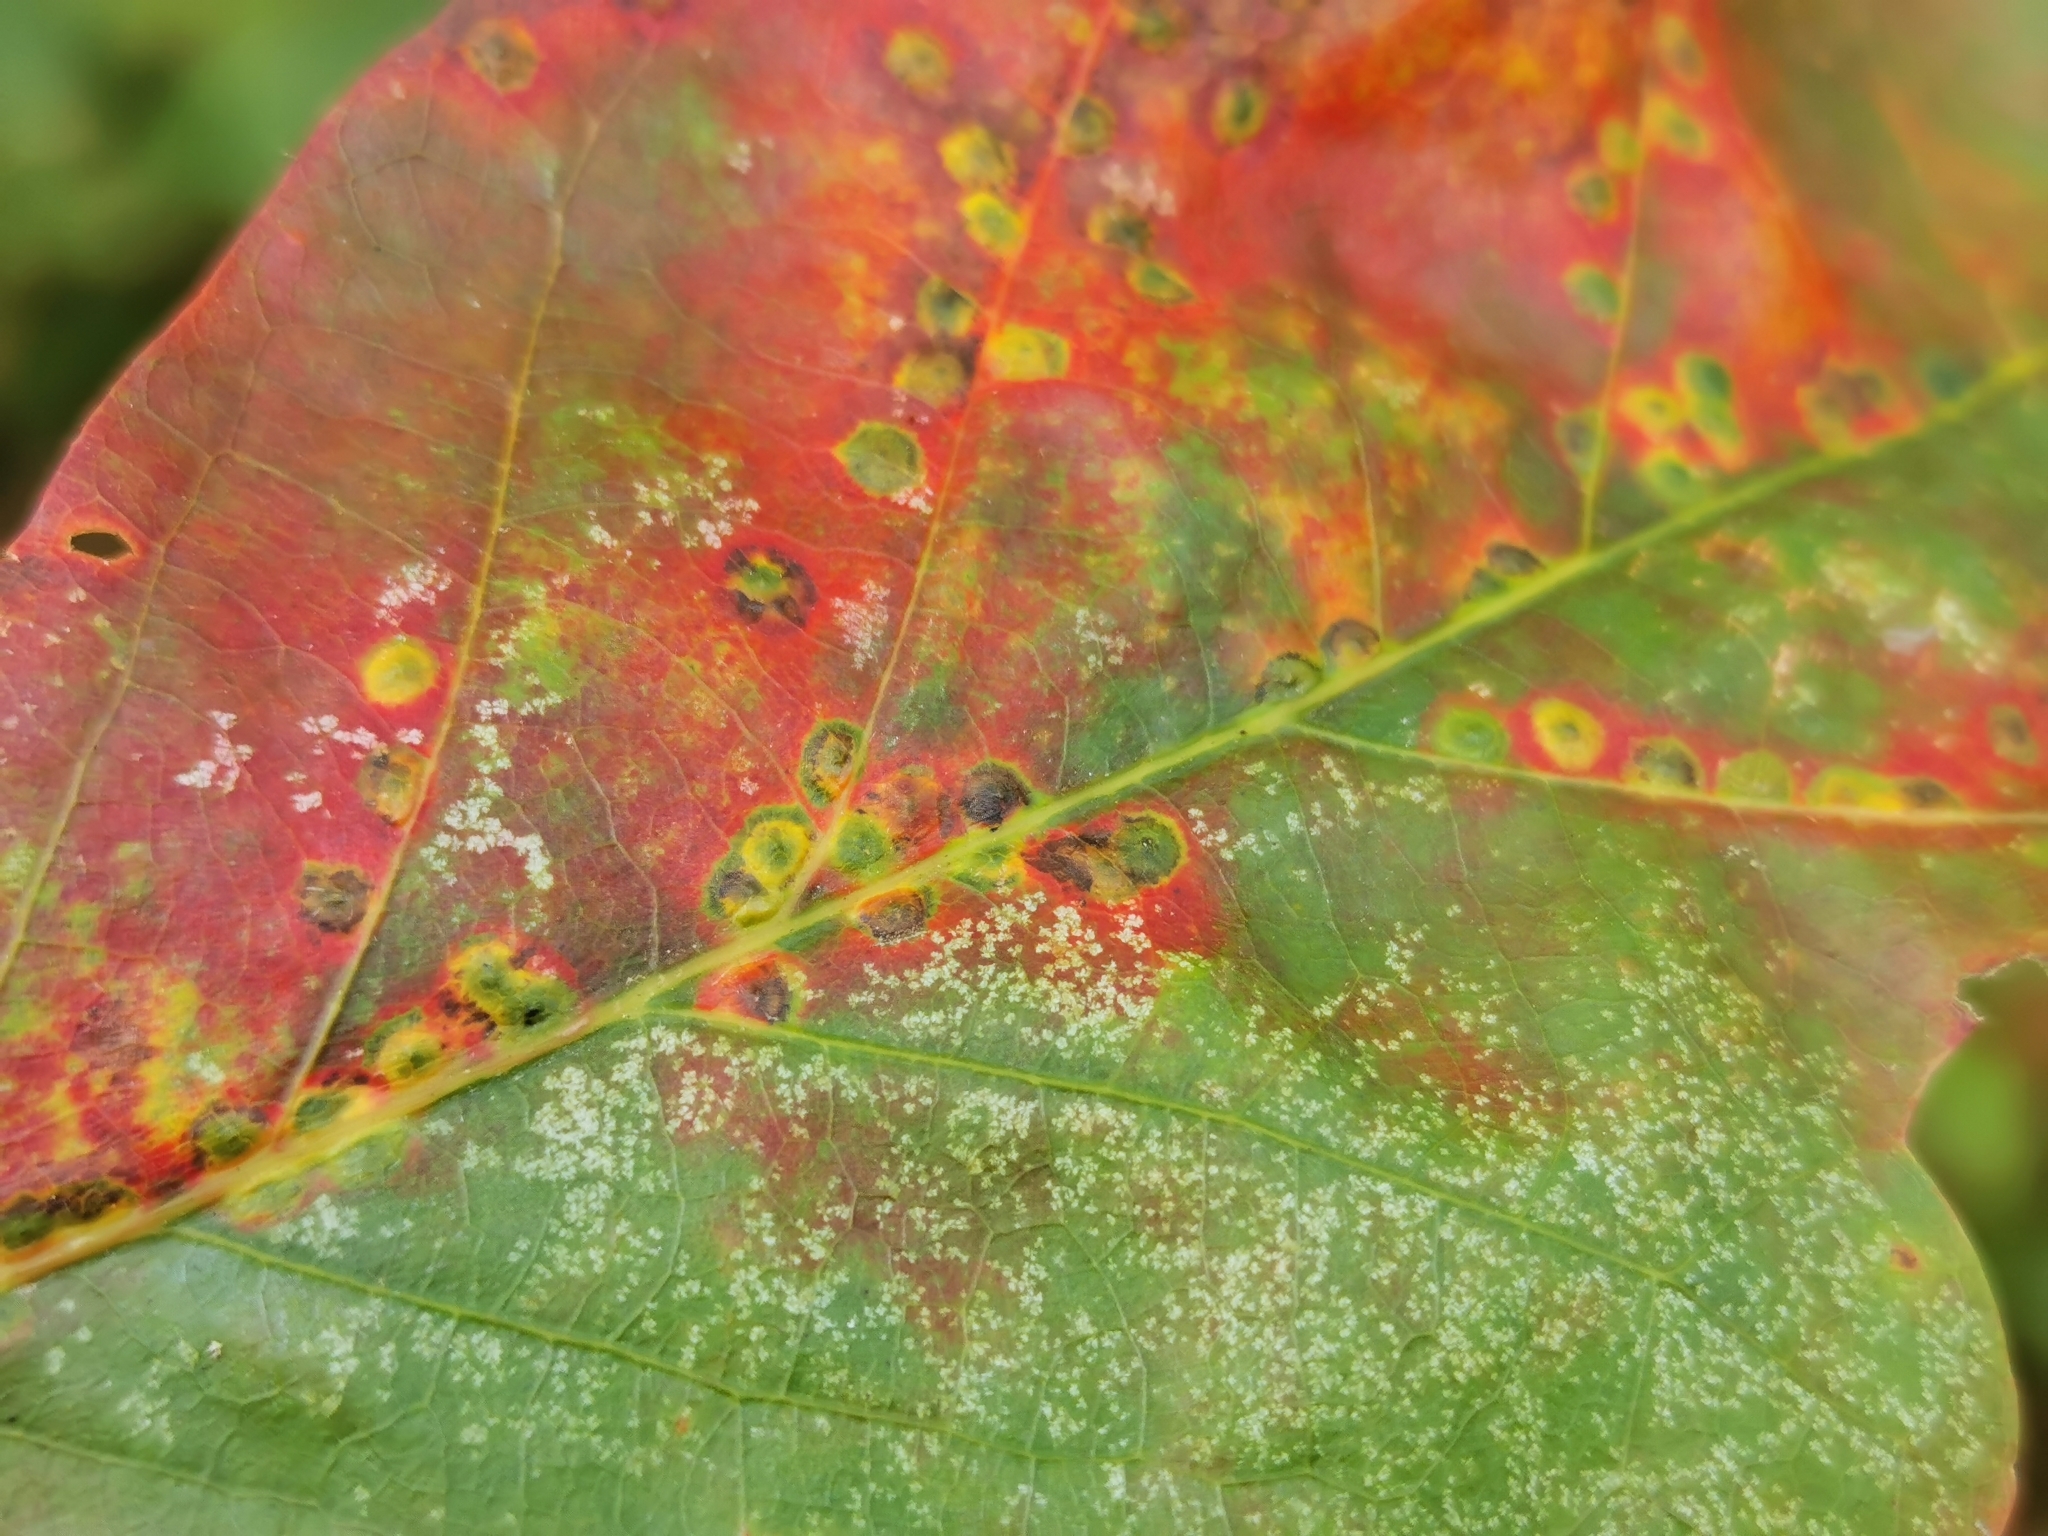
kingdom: Animalia
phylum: Arthropoda
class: Insecta
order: Hymenoptera
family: Cynipidae
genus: Neuroterus
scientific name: Neuroterus niger
